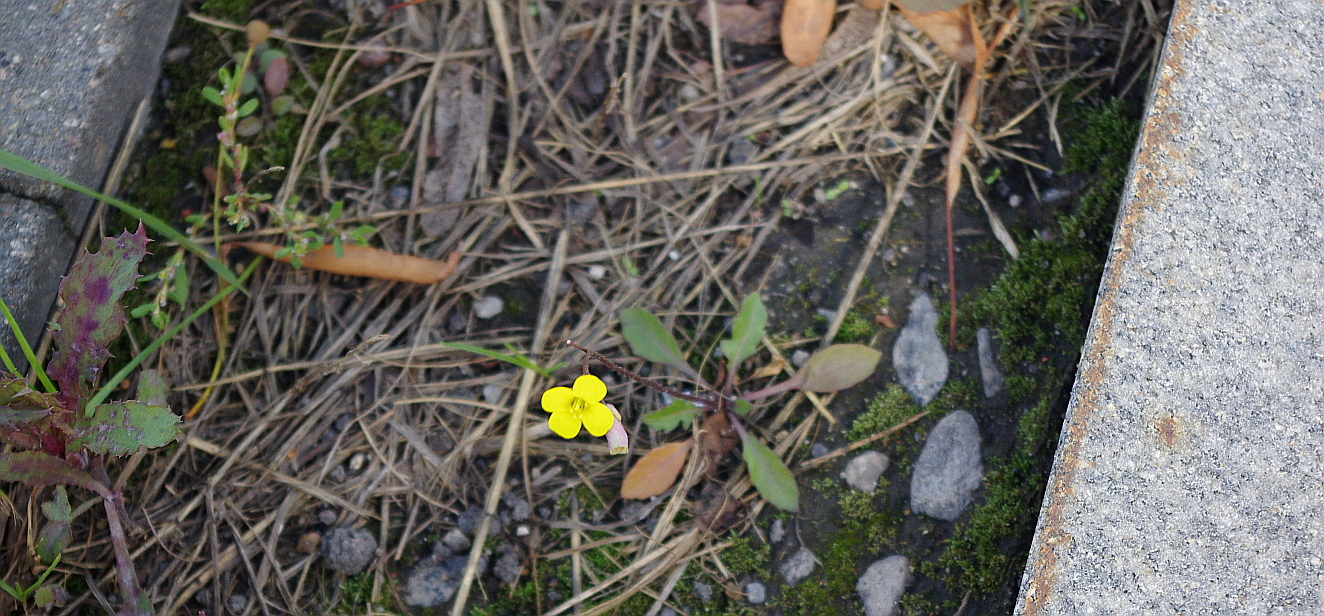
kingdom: Plantae
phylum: Tracheophyta
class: Magnoliopsida
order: Brassicales
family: Brassicaceae
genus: Diplotaxis
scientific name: Diplotaxis muralis
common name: Annual wall-rocket
